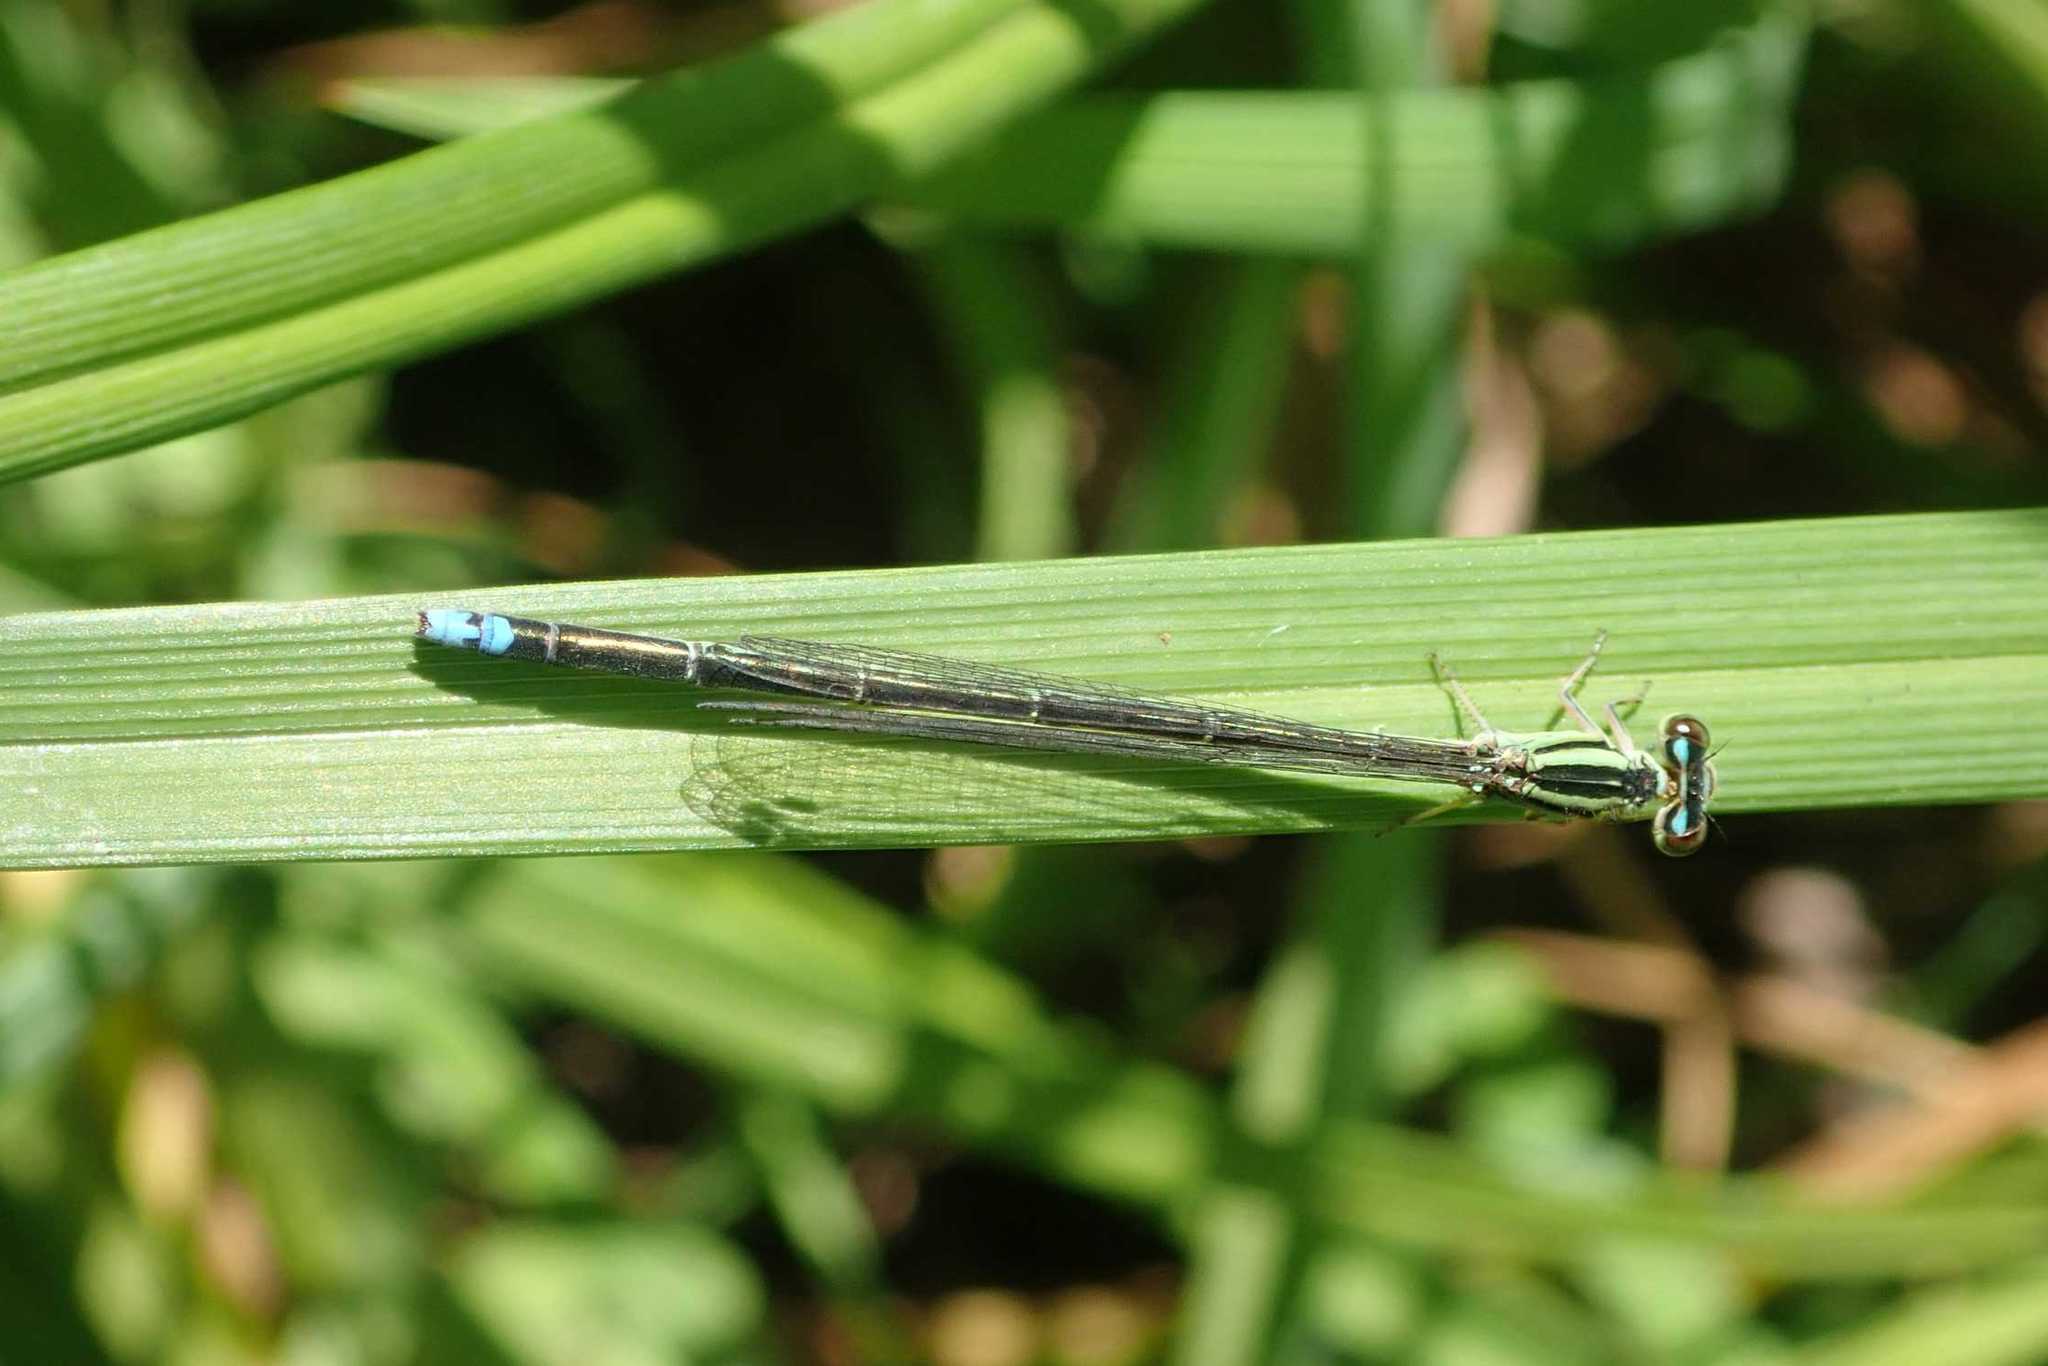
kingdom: Animalia
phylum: Arthropoda
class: Insecta
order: Odonata
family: Coenagrionidae
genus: Pseudagrion
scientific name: Pseudagrion salisburyense
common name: Slate sprite
